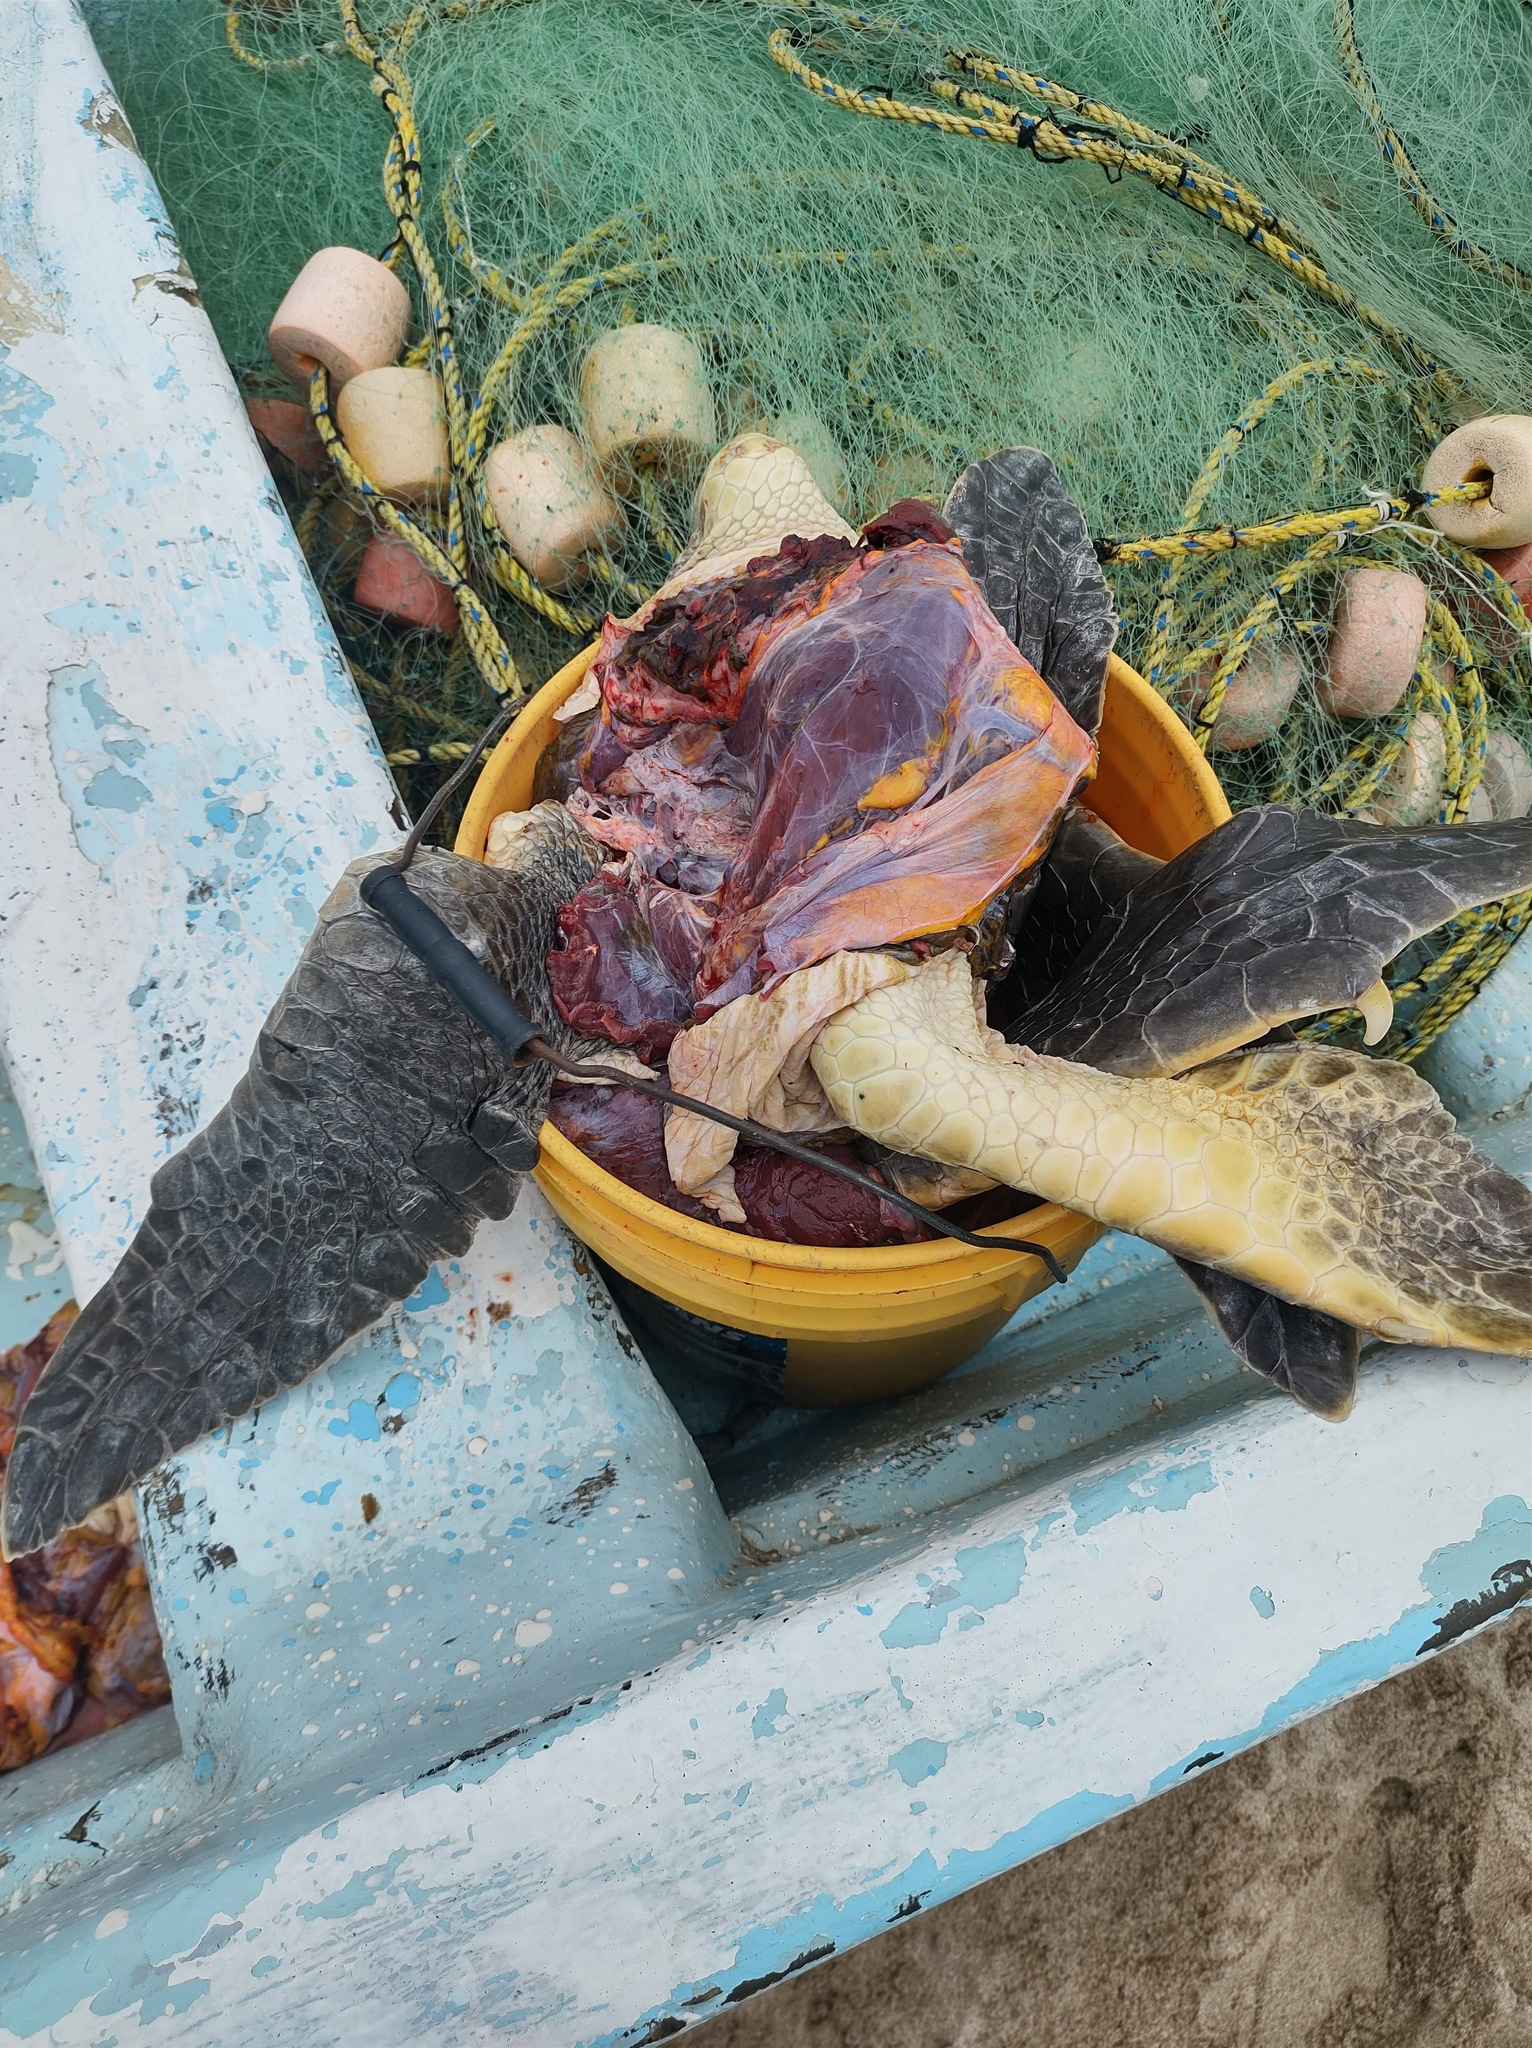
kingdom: Animalia
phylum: Chordata
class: Testudines
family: Cheloniidae
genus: Lepidochelys
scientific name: Lepidochelys olivacea
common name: Olive ridley
